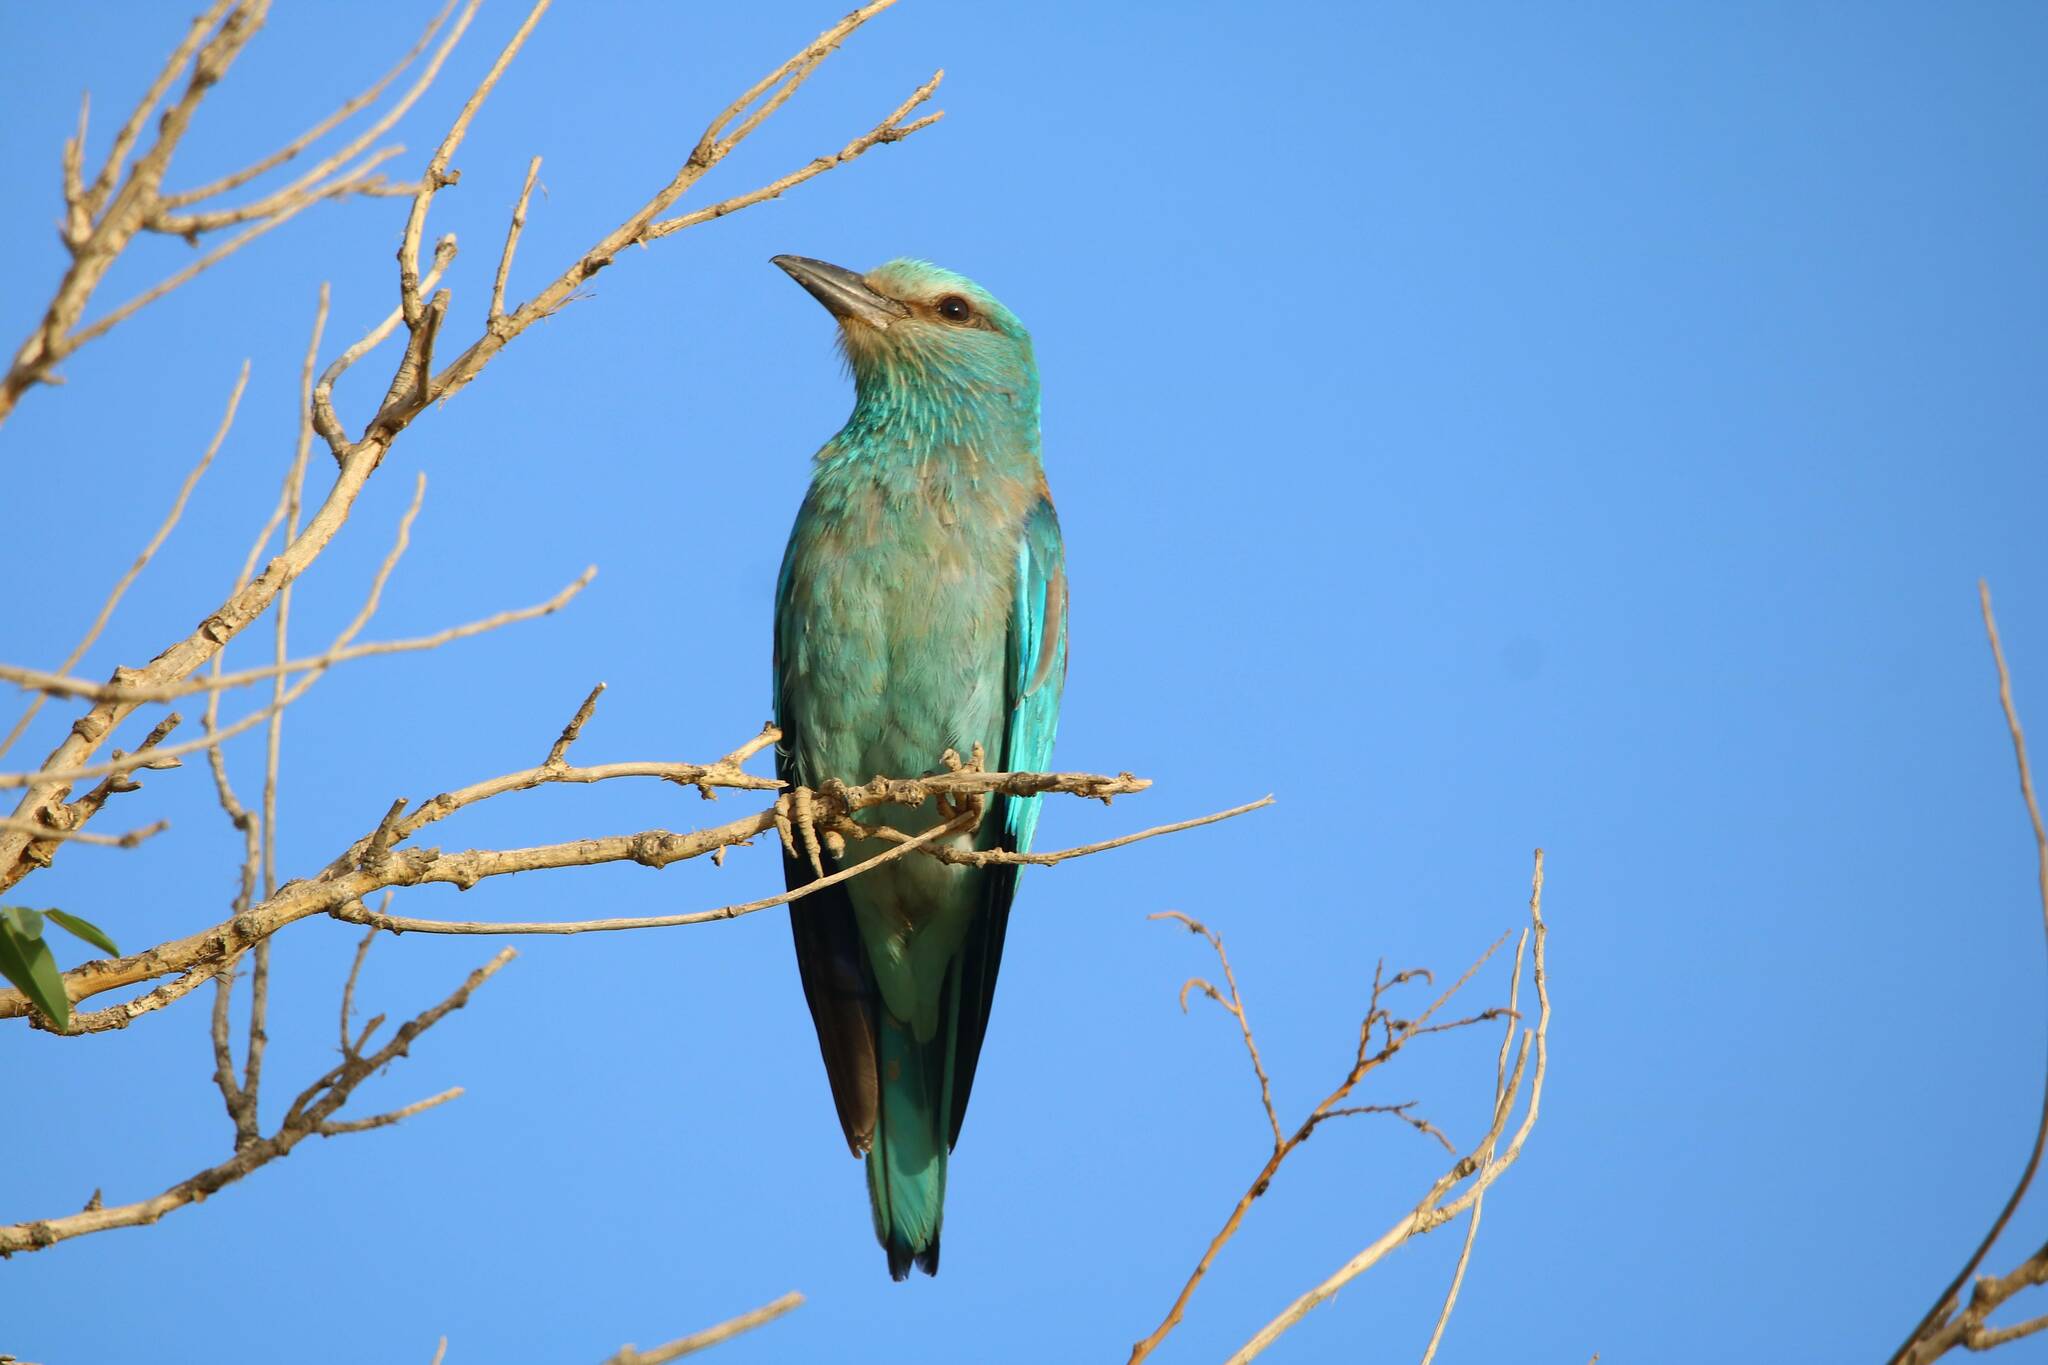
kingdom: Animalia
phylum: Chordata
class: Aves
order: Coraciiformes
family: Coraciidae
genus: Coracias
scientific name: Coracias garrulus
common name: European roller
